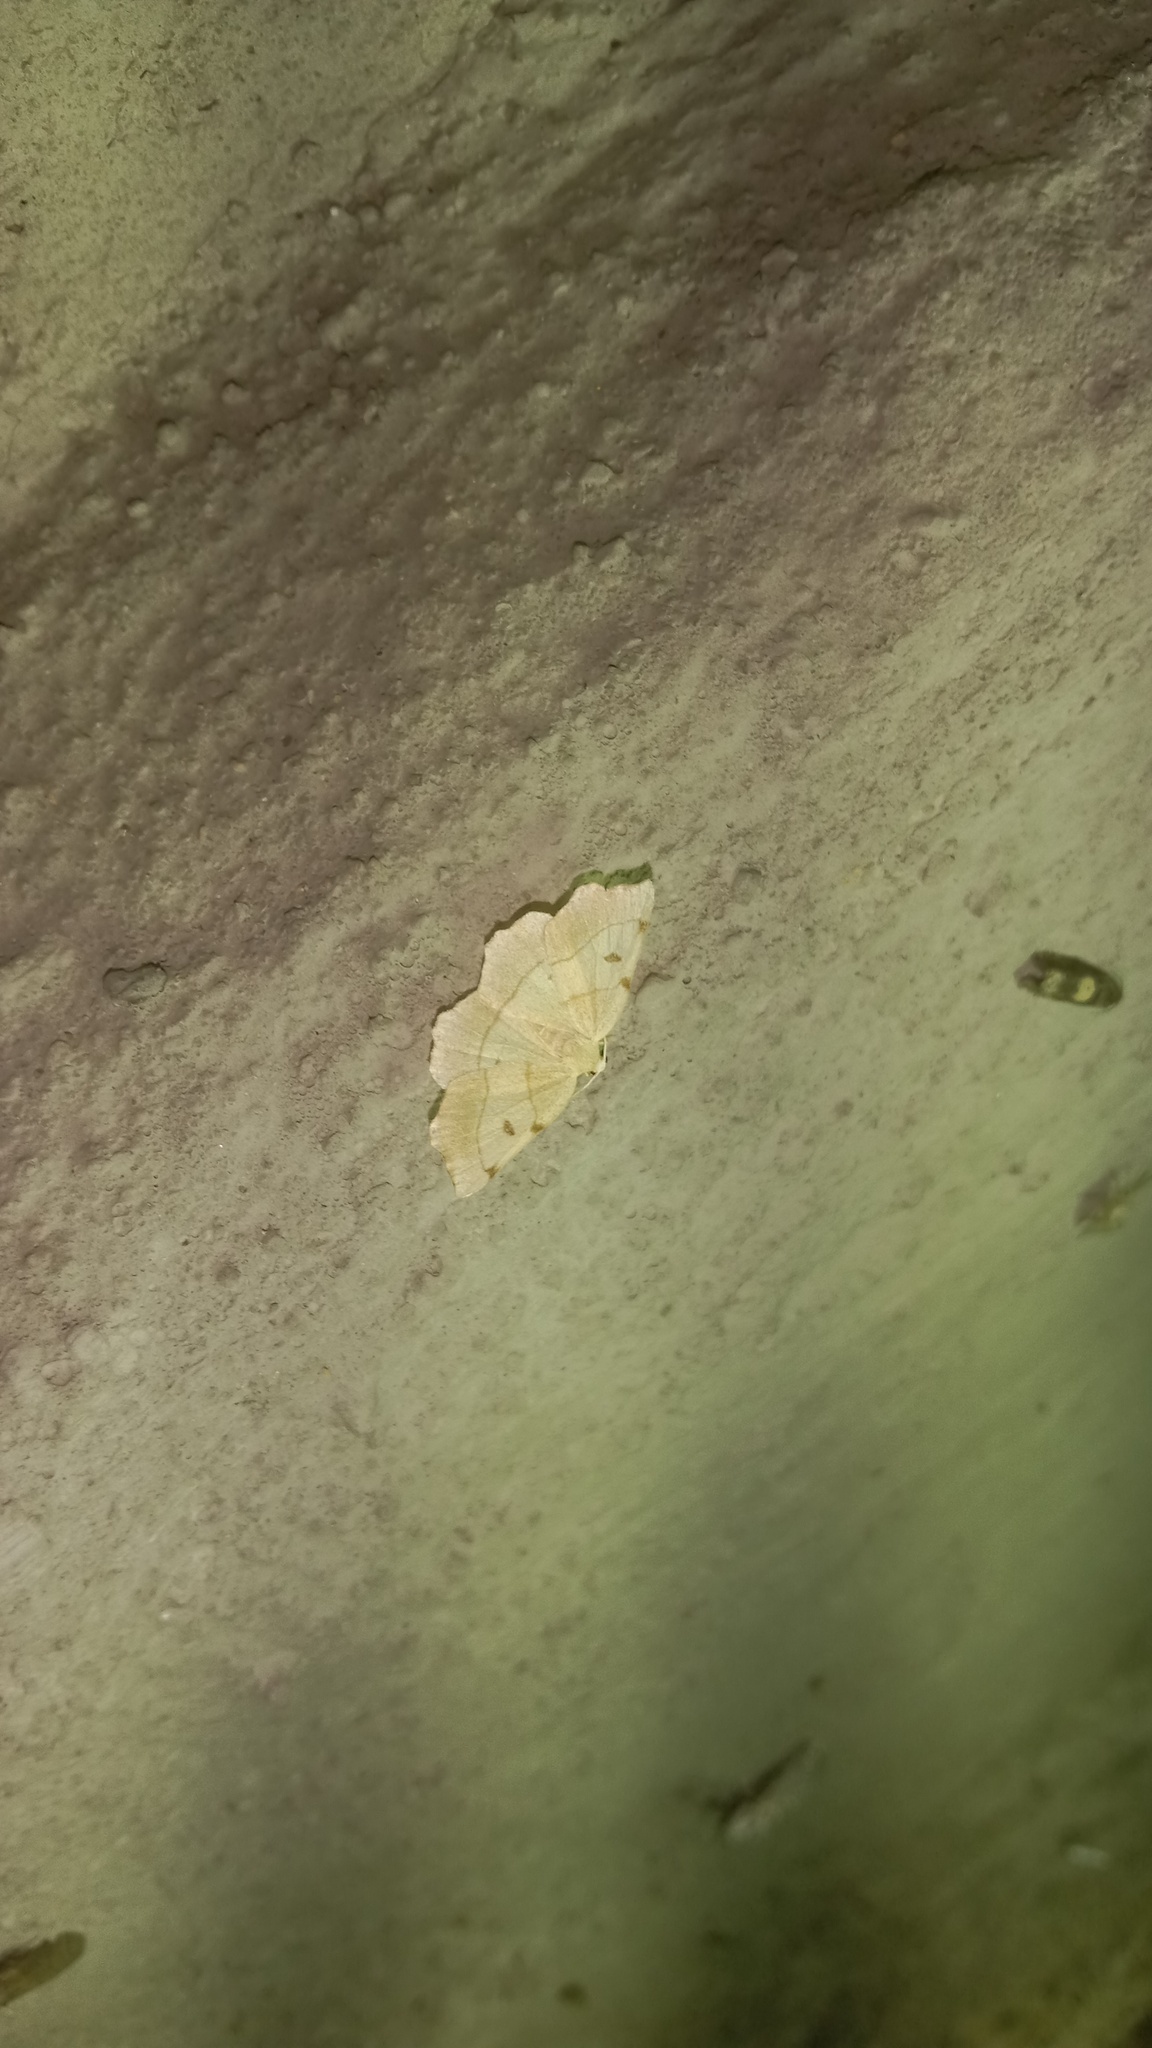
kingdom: Animalia
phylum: Arthropoda
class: Insecta
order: Lepidoptera
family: Geometridae
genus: Eilicrinia
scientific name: Eilicrinia trinotata
